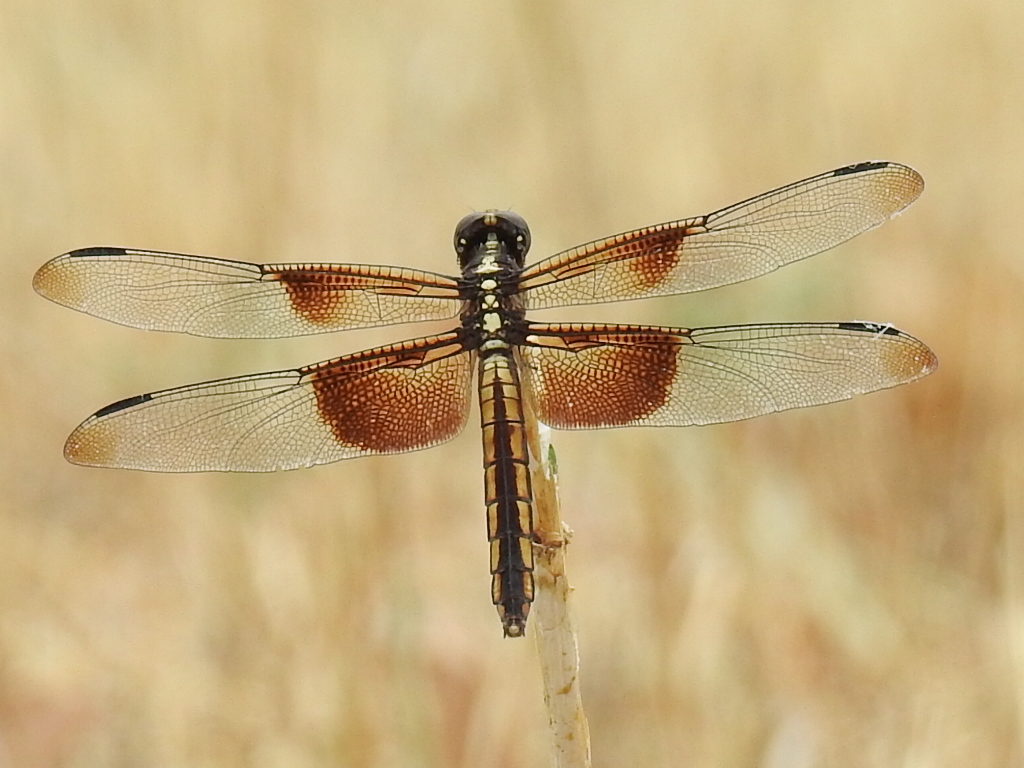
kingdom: Animalia
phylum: Arthropoda
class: Insecta
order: Odonata
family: Libellulidae
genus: Libellula
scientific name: Libellula luctuosa
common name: Widow skimmer
